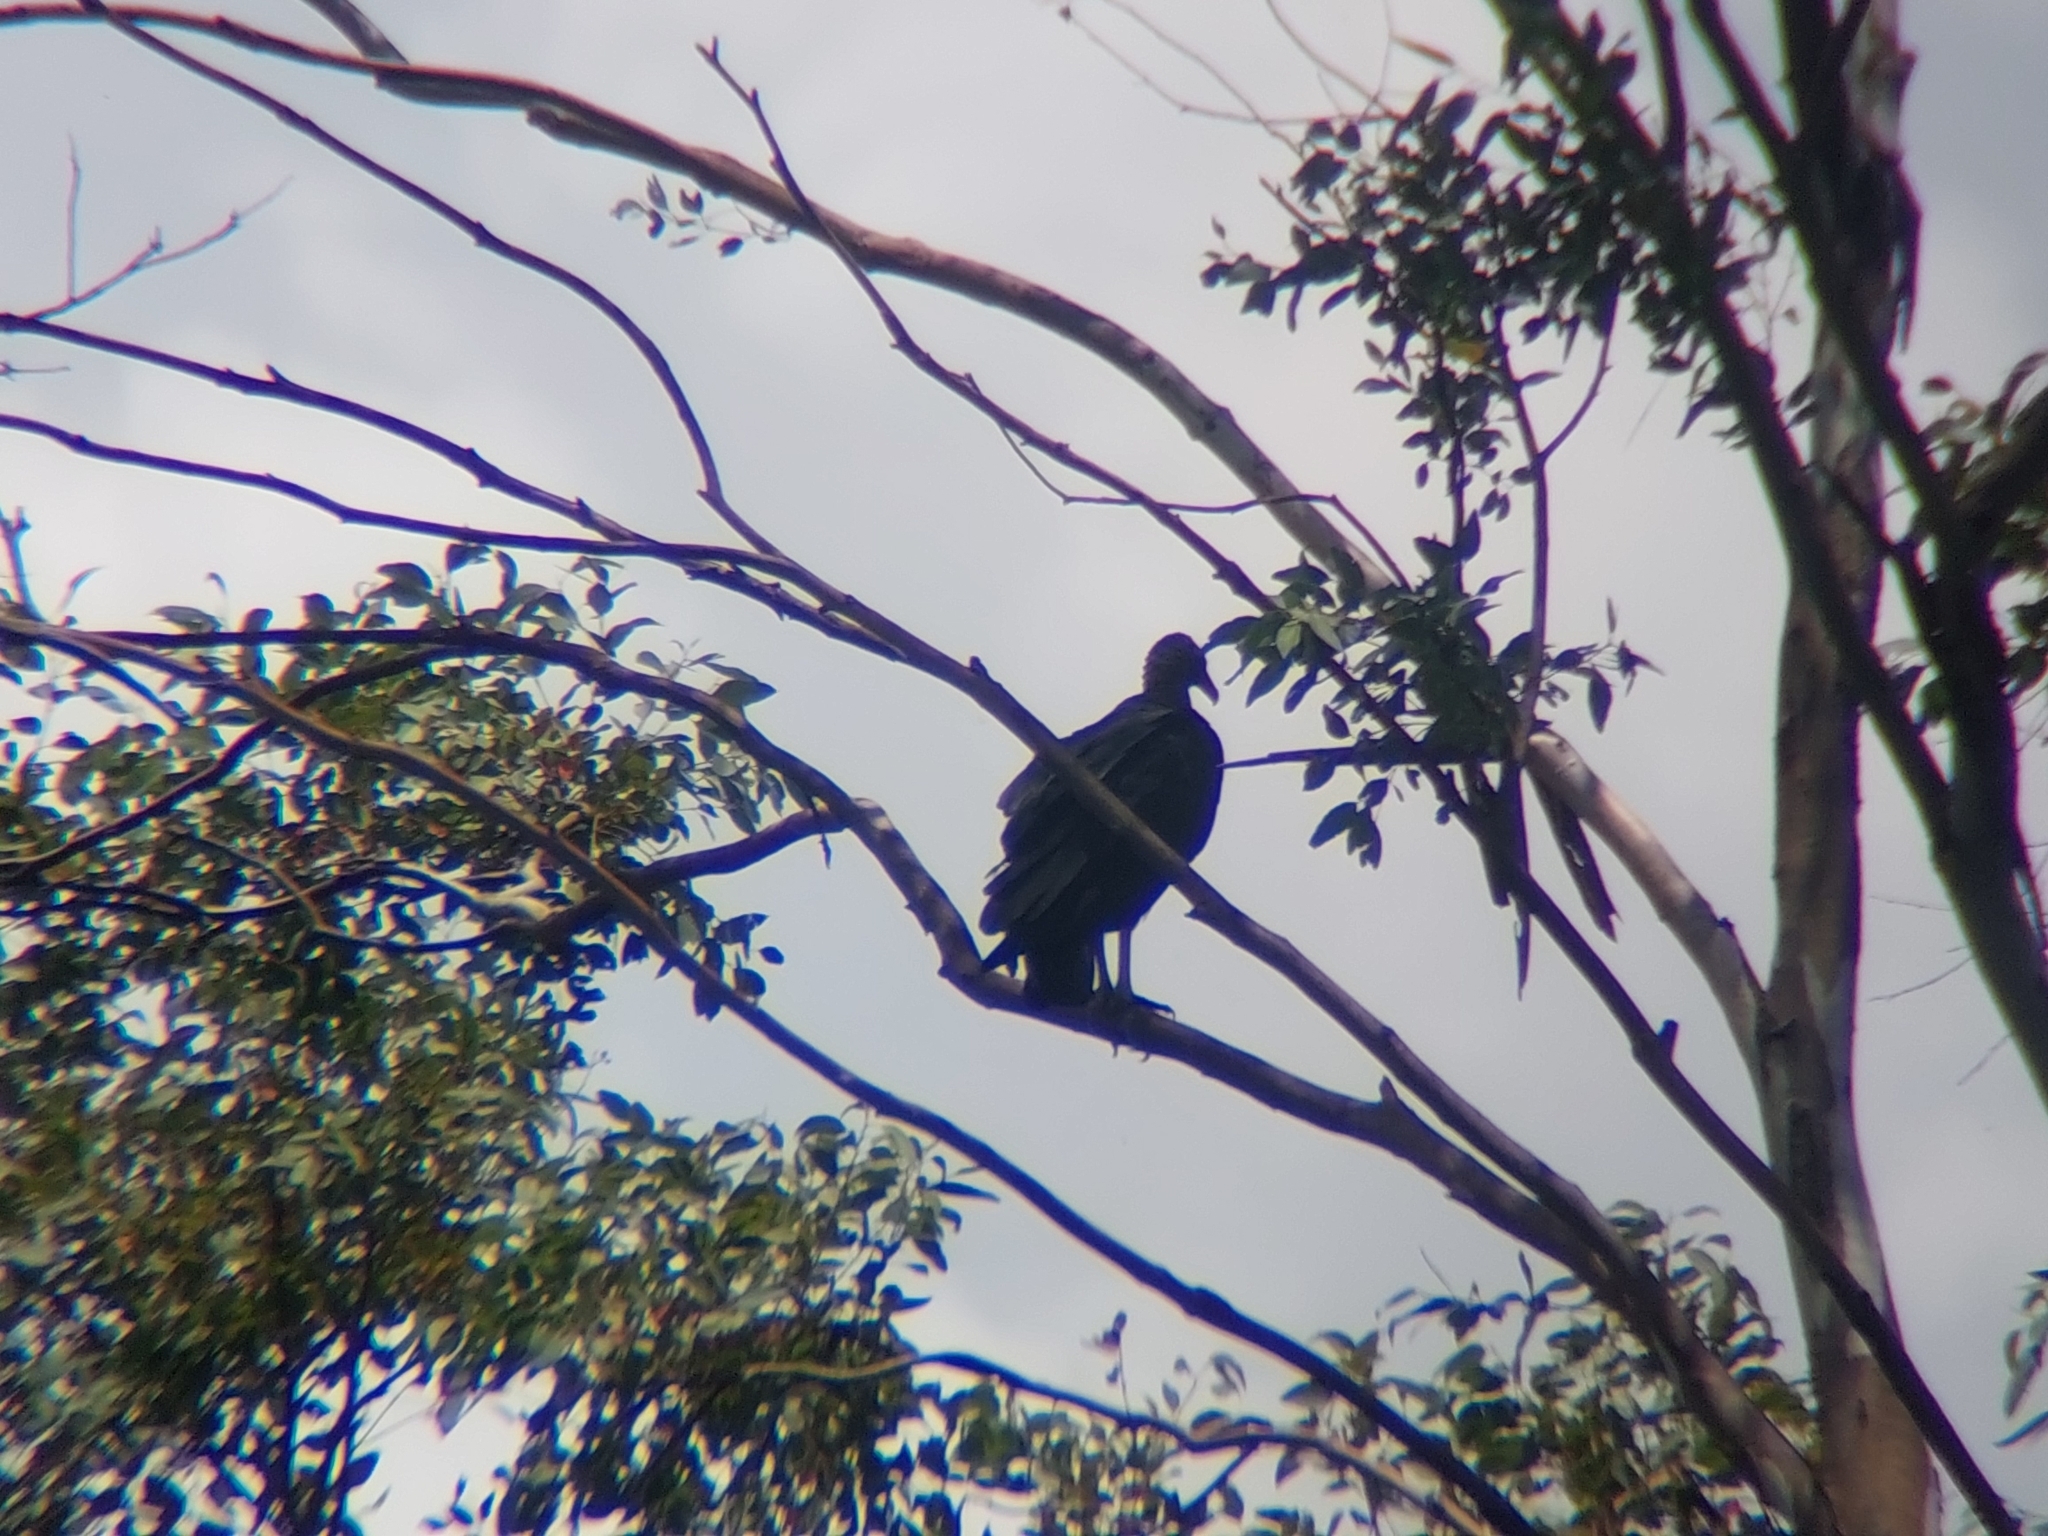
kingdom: Animalia
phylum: Chordata
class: Aves
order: Accipitriformes
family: Cathartidae
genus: Coragyps
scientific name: Coragyps atratus
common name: Black vulture
